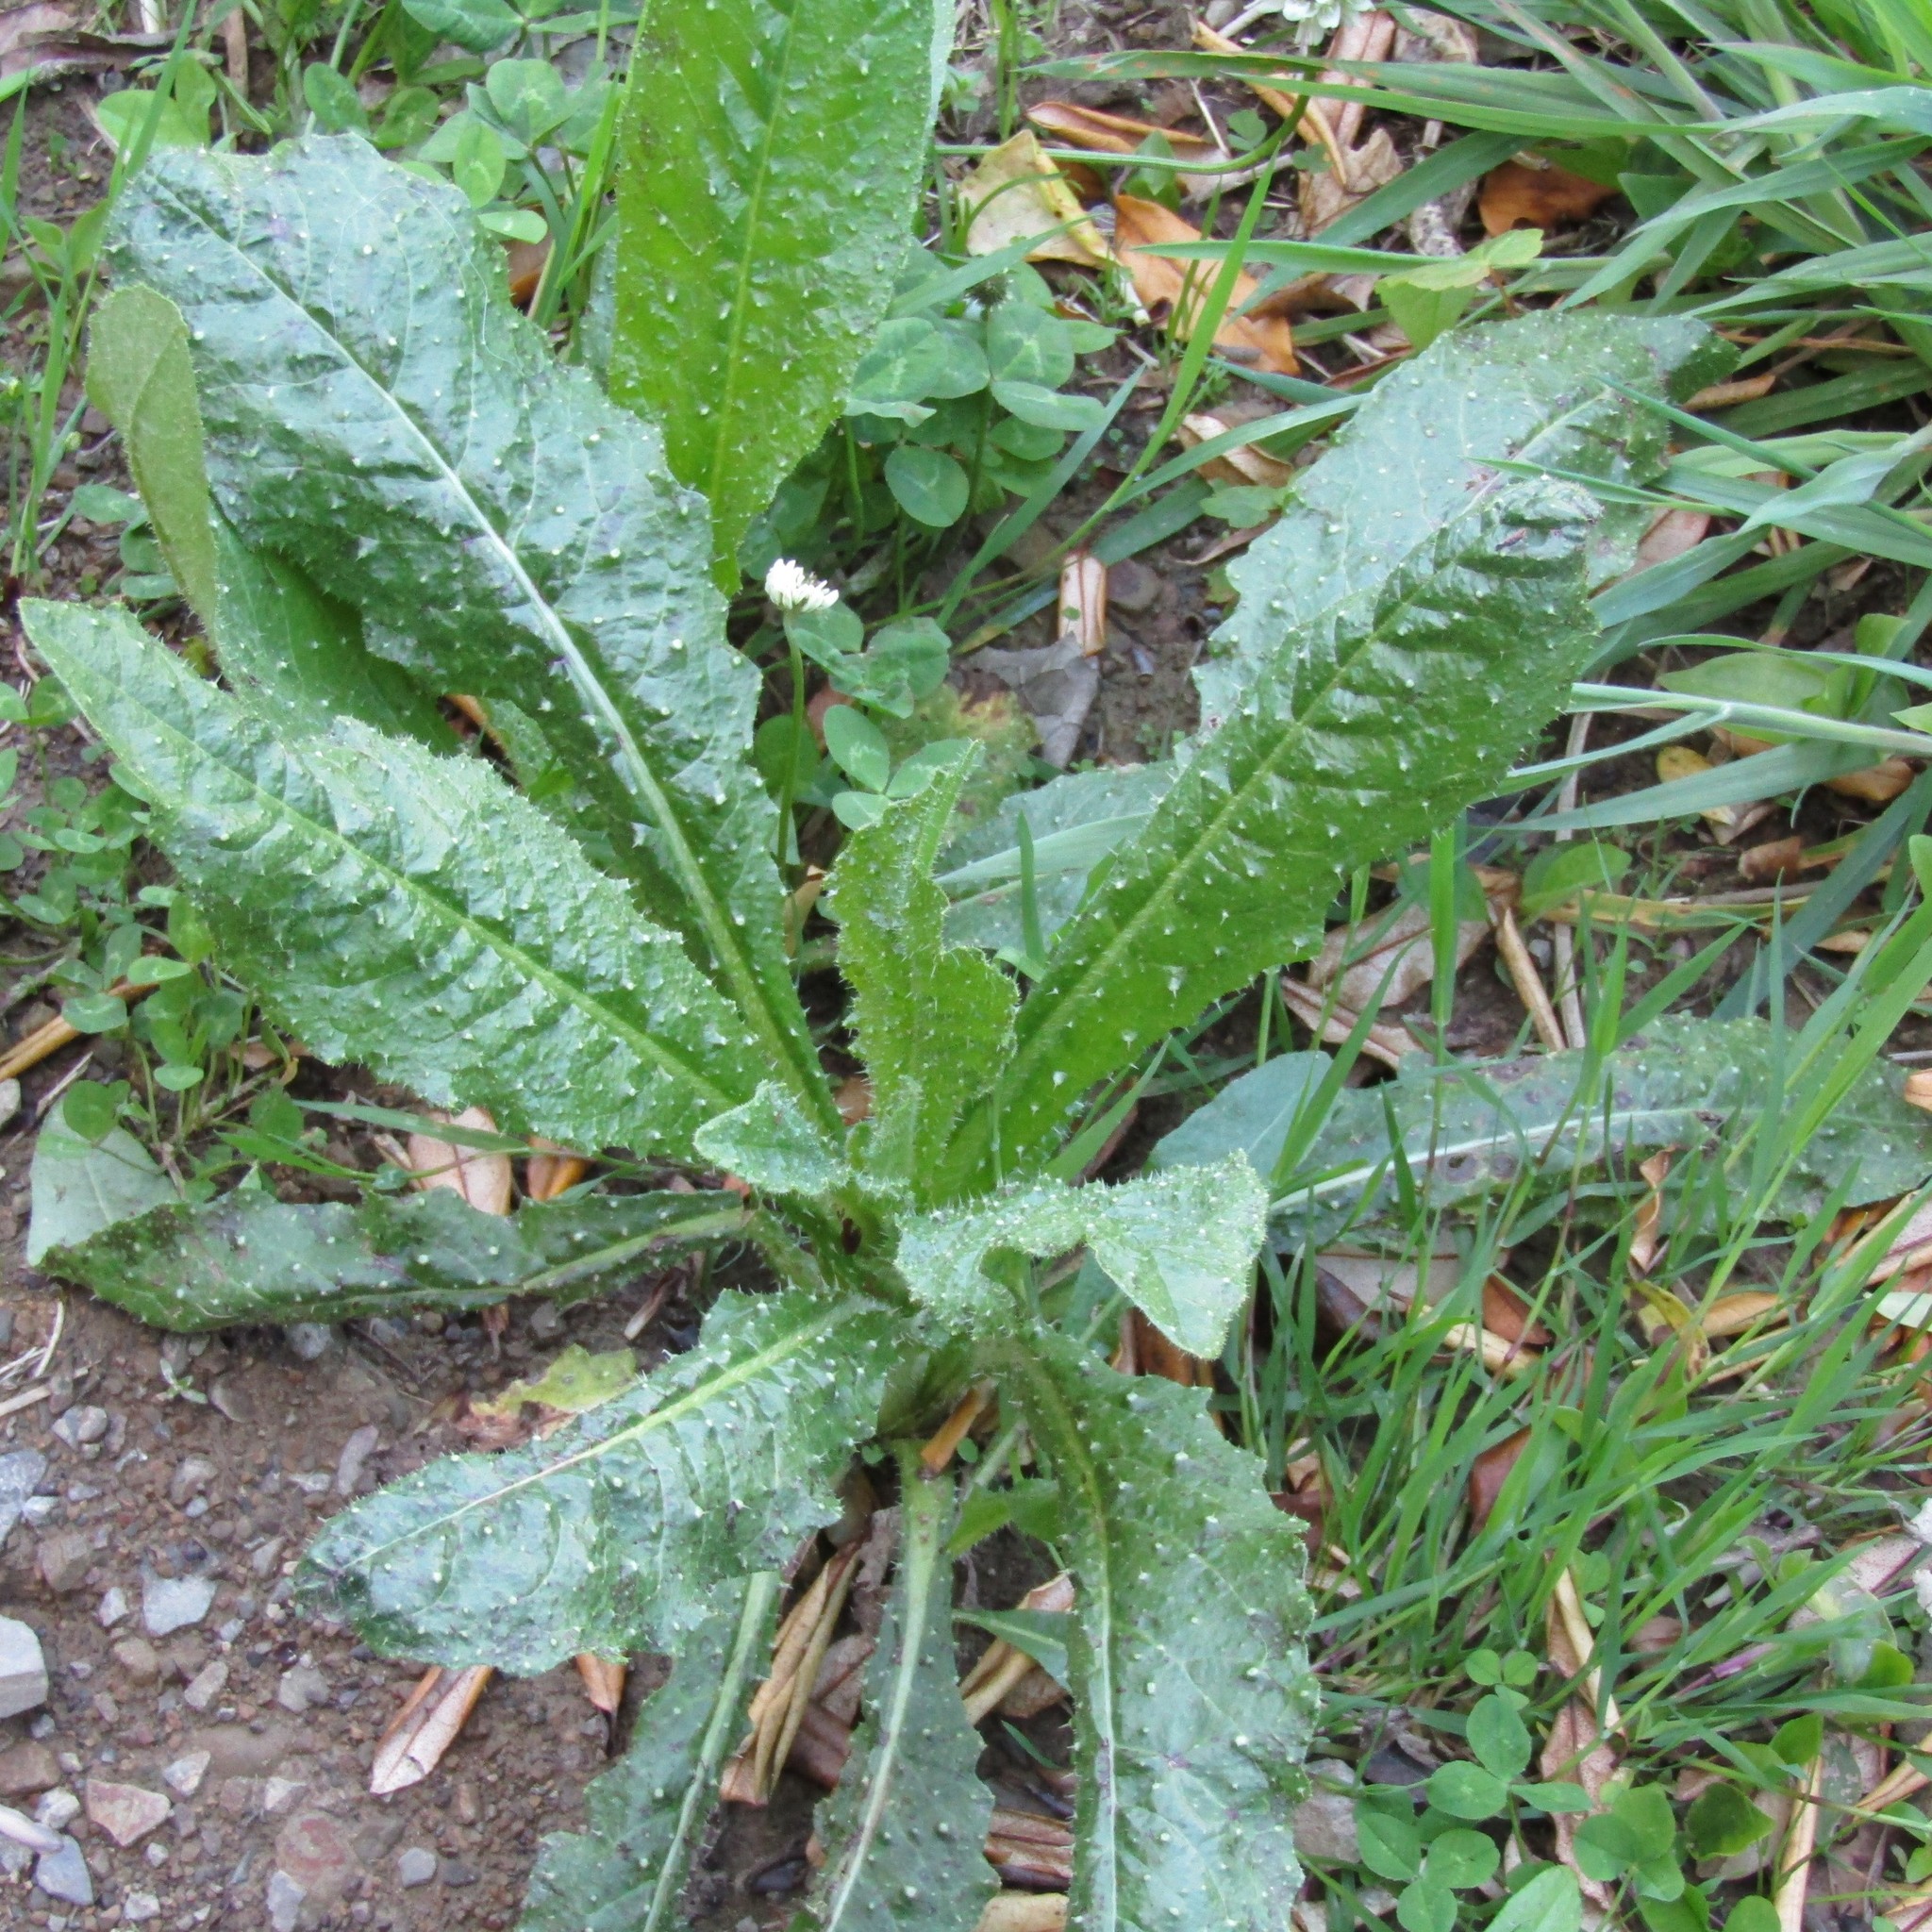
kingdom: Plantae
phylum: Tracheophyta
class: Magnoliopsida
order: Asterales
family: Asteraceae
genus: Helminthotheca
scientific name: Helminthotheca echioides
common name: Ox-tongue
